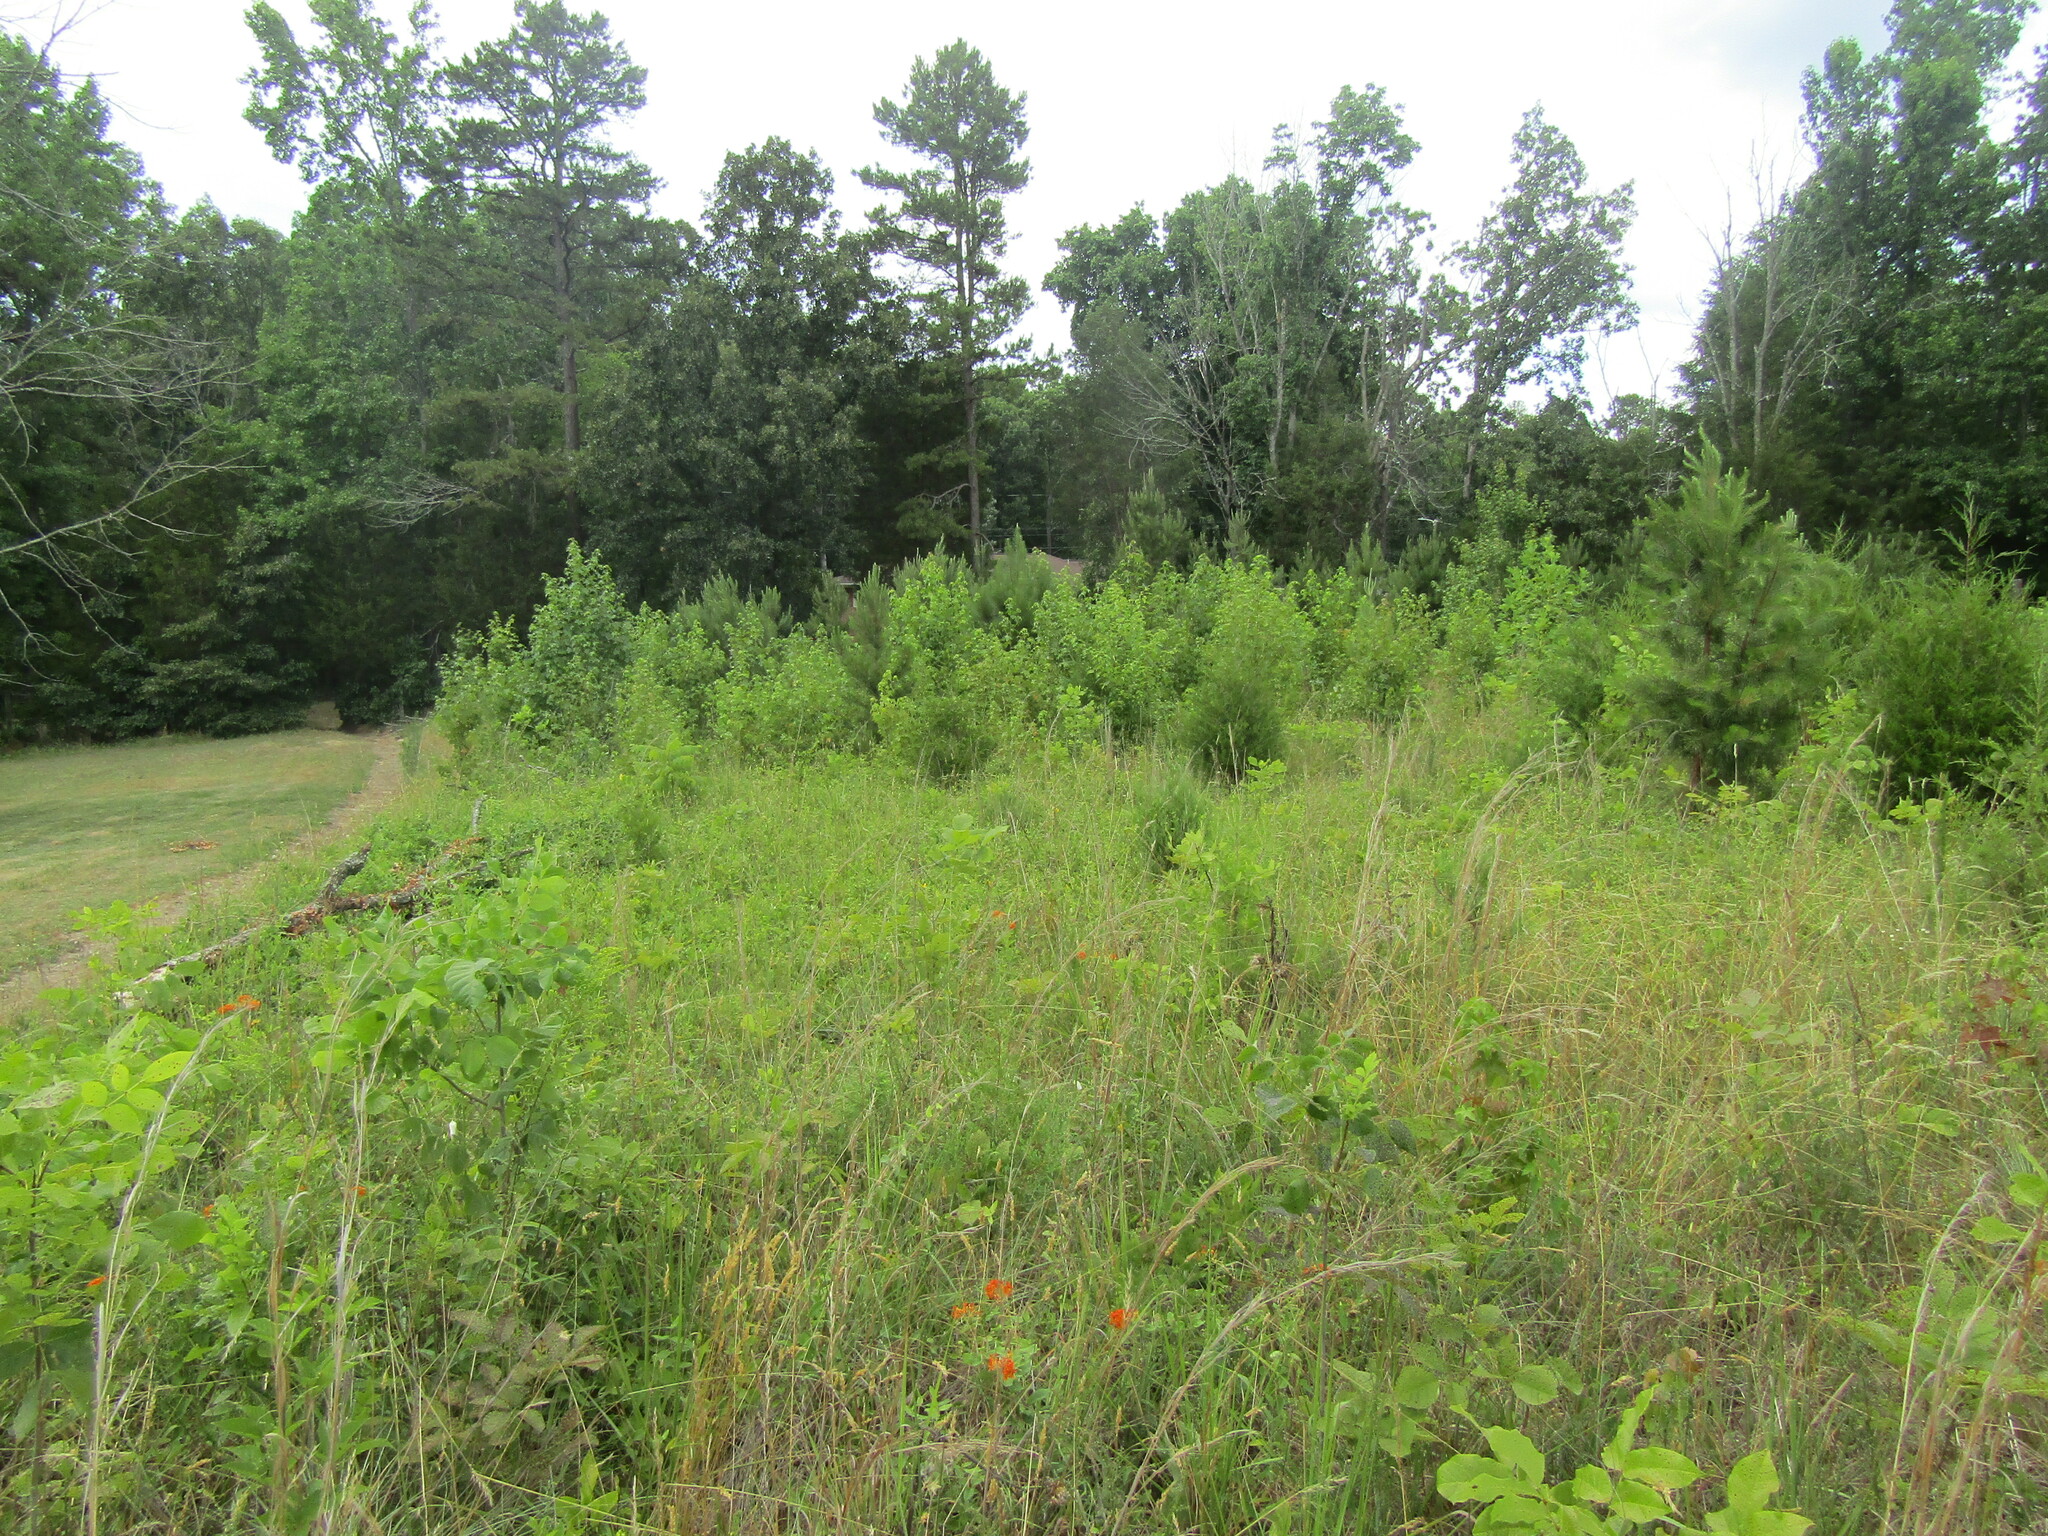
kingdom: Animalia
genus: Calephelis
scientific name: Calephelis virginiensis
